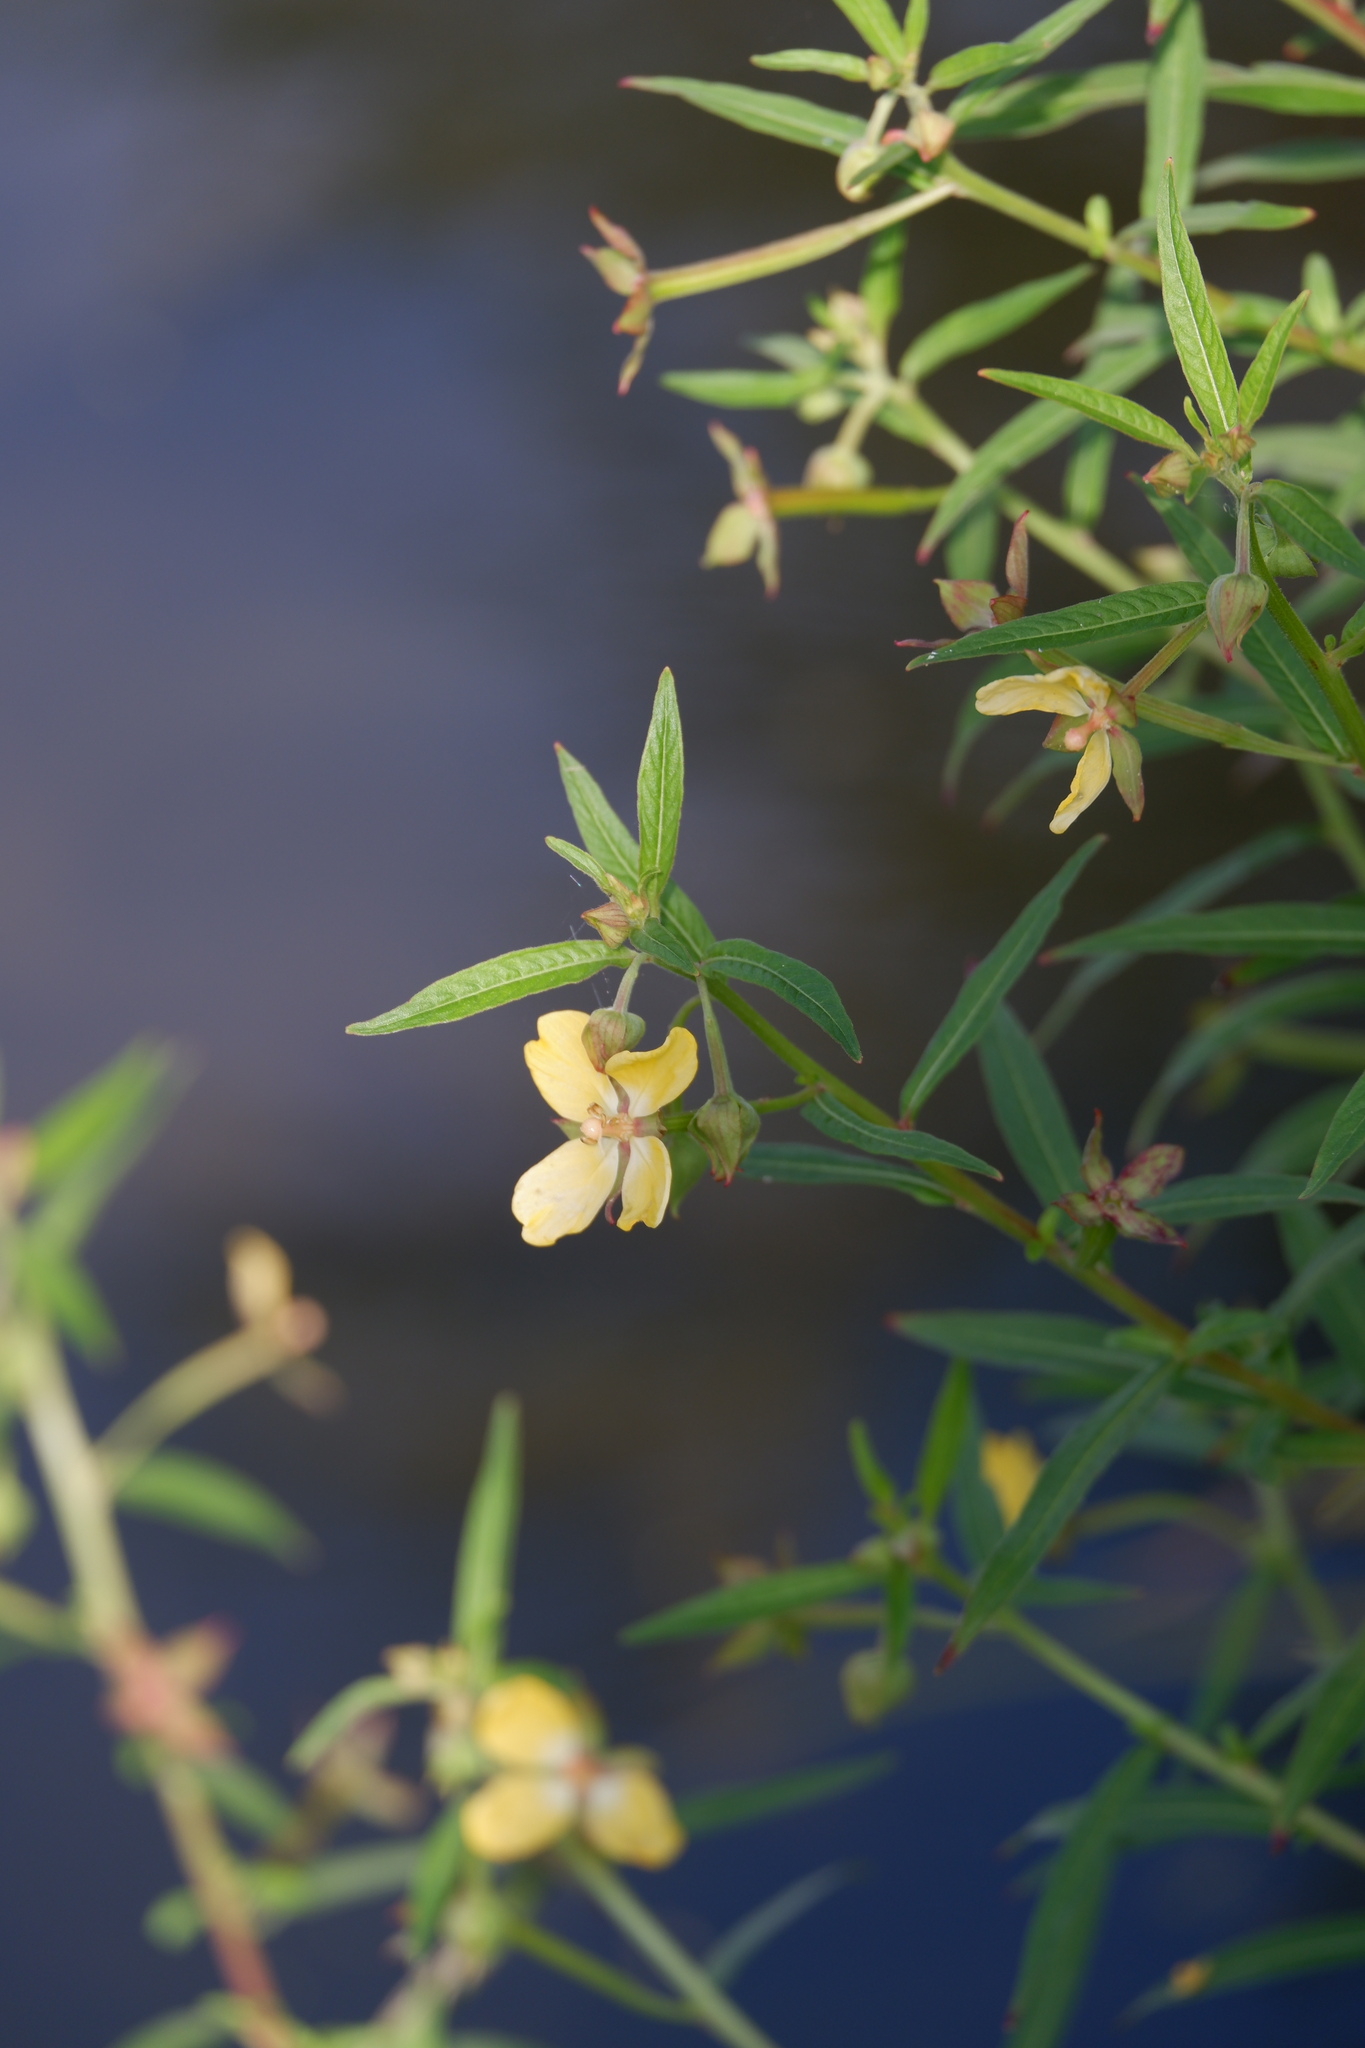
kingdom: Plantae
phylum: Tracheophyta
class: Magnoliopsida
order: Myrtales
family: Onagraceae
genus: Ludwigia
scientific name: Ludwigia octovalvis
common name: Water-primrose
